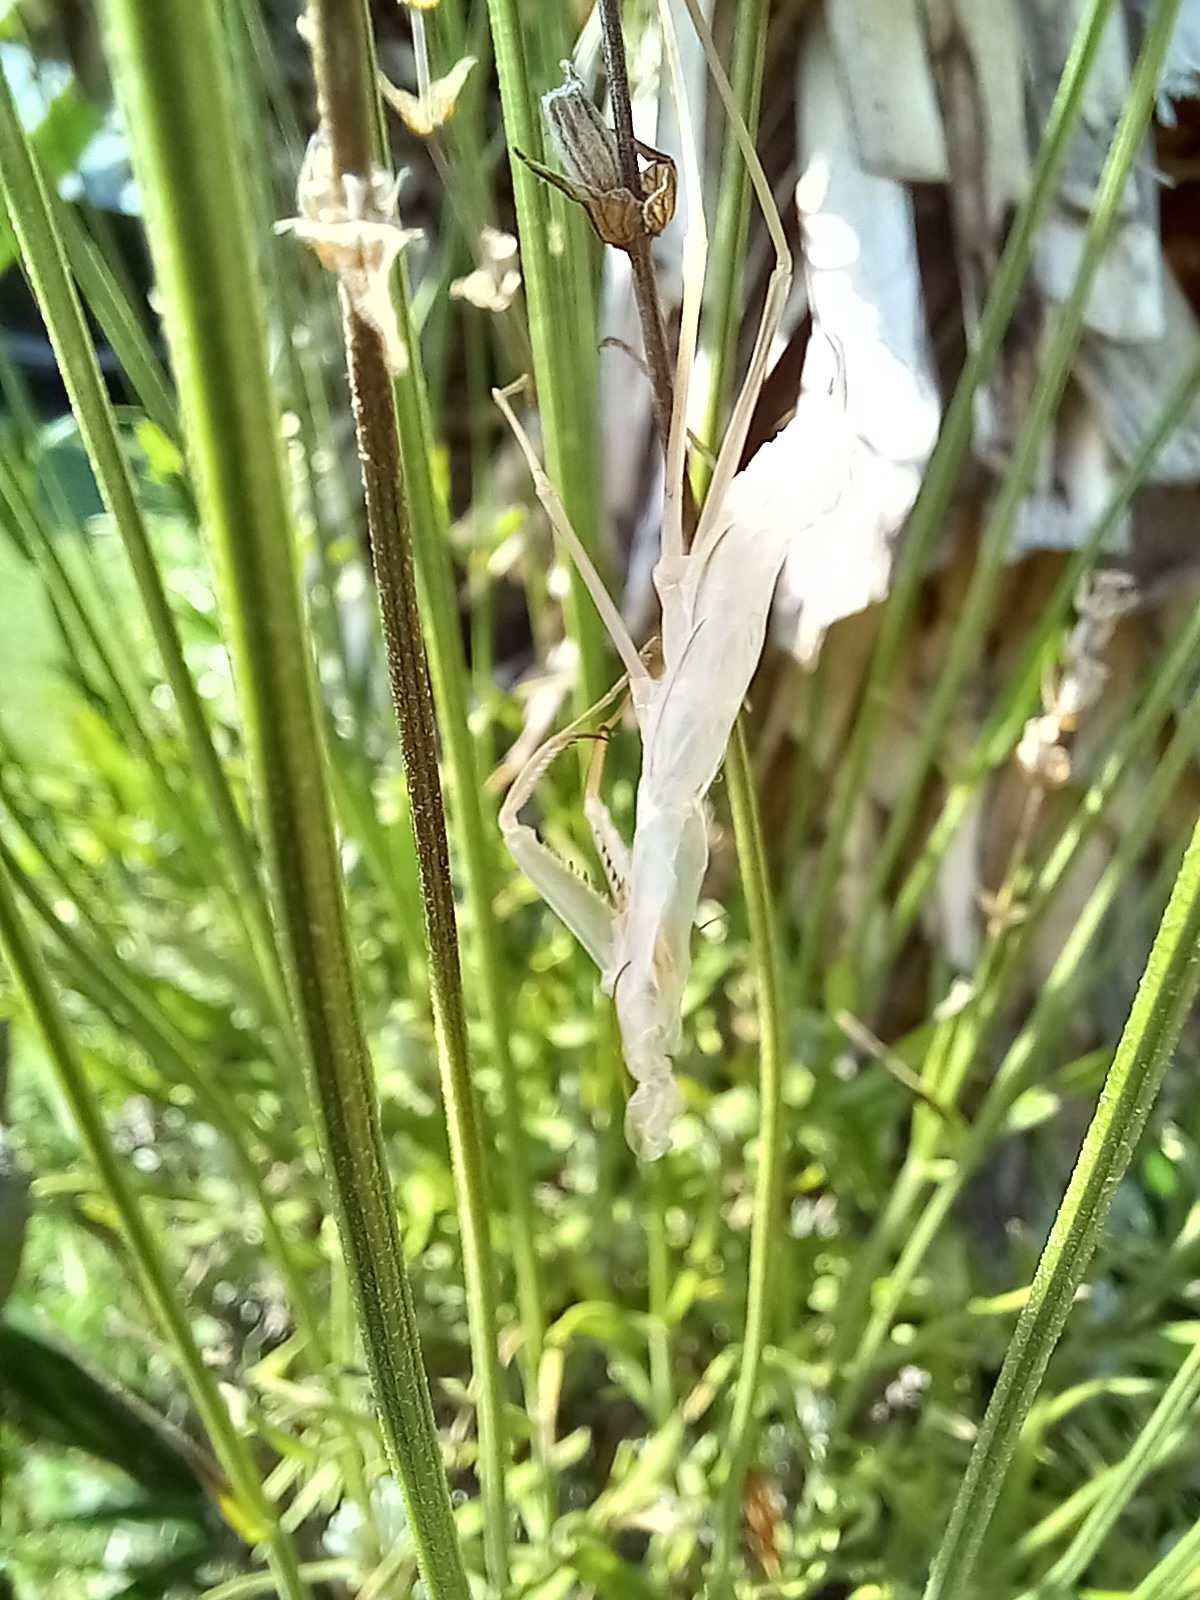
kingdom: Animalia
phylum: Arthropoda
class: Insecta
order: Mantodea
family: Mantidae
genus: Mantis
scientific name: Mantis religiosa
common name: Praying mantis
